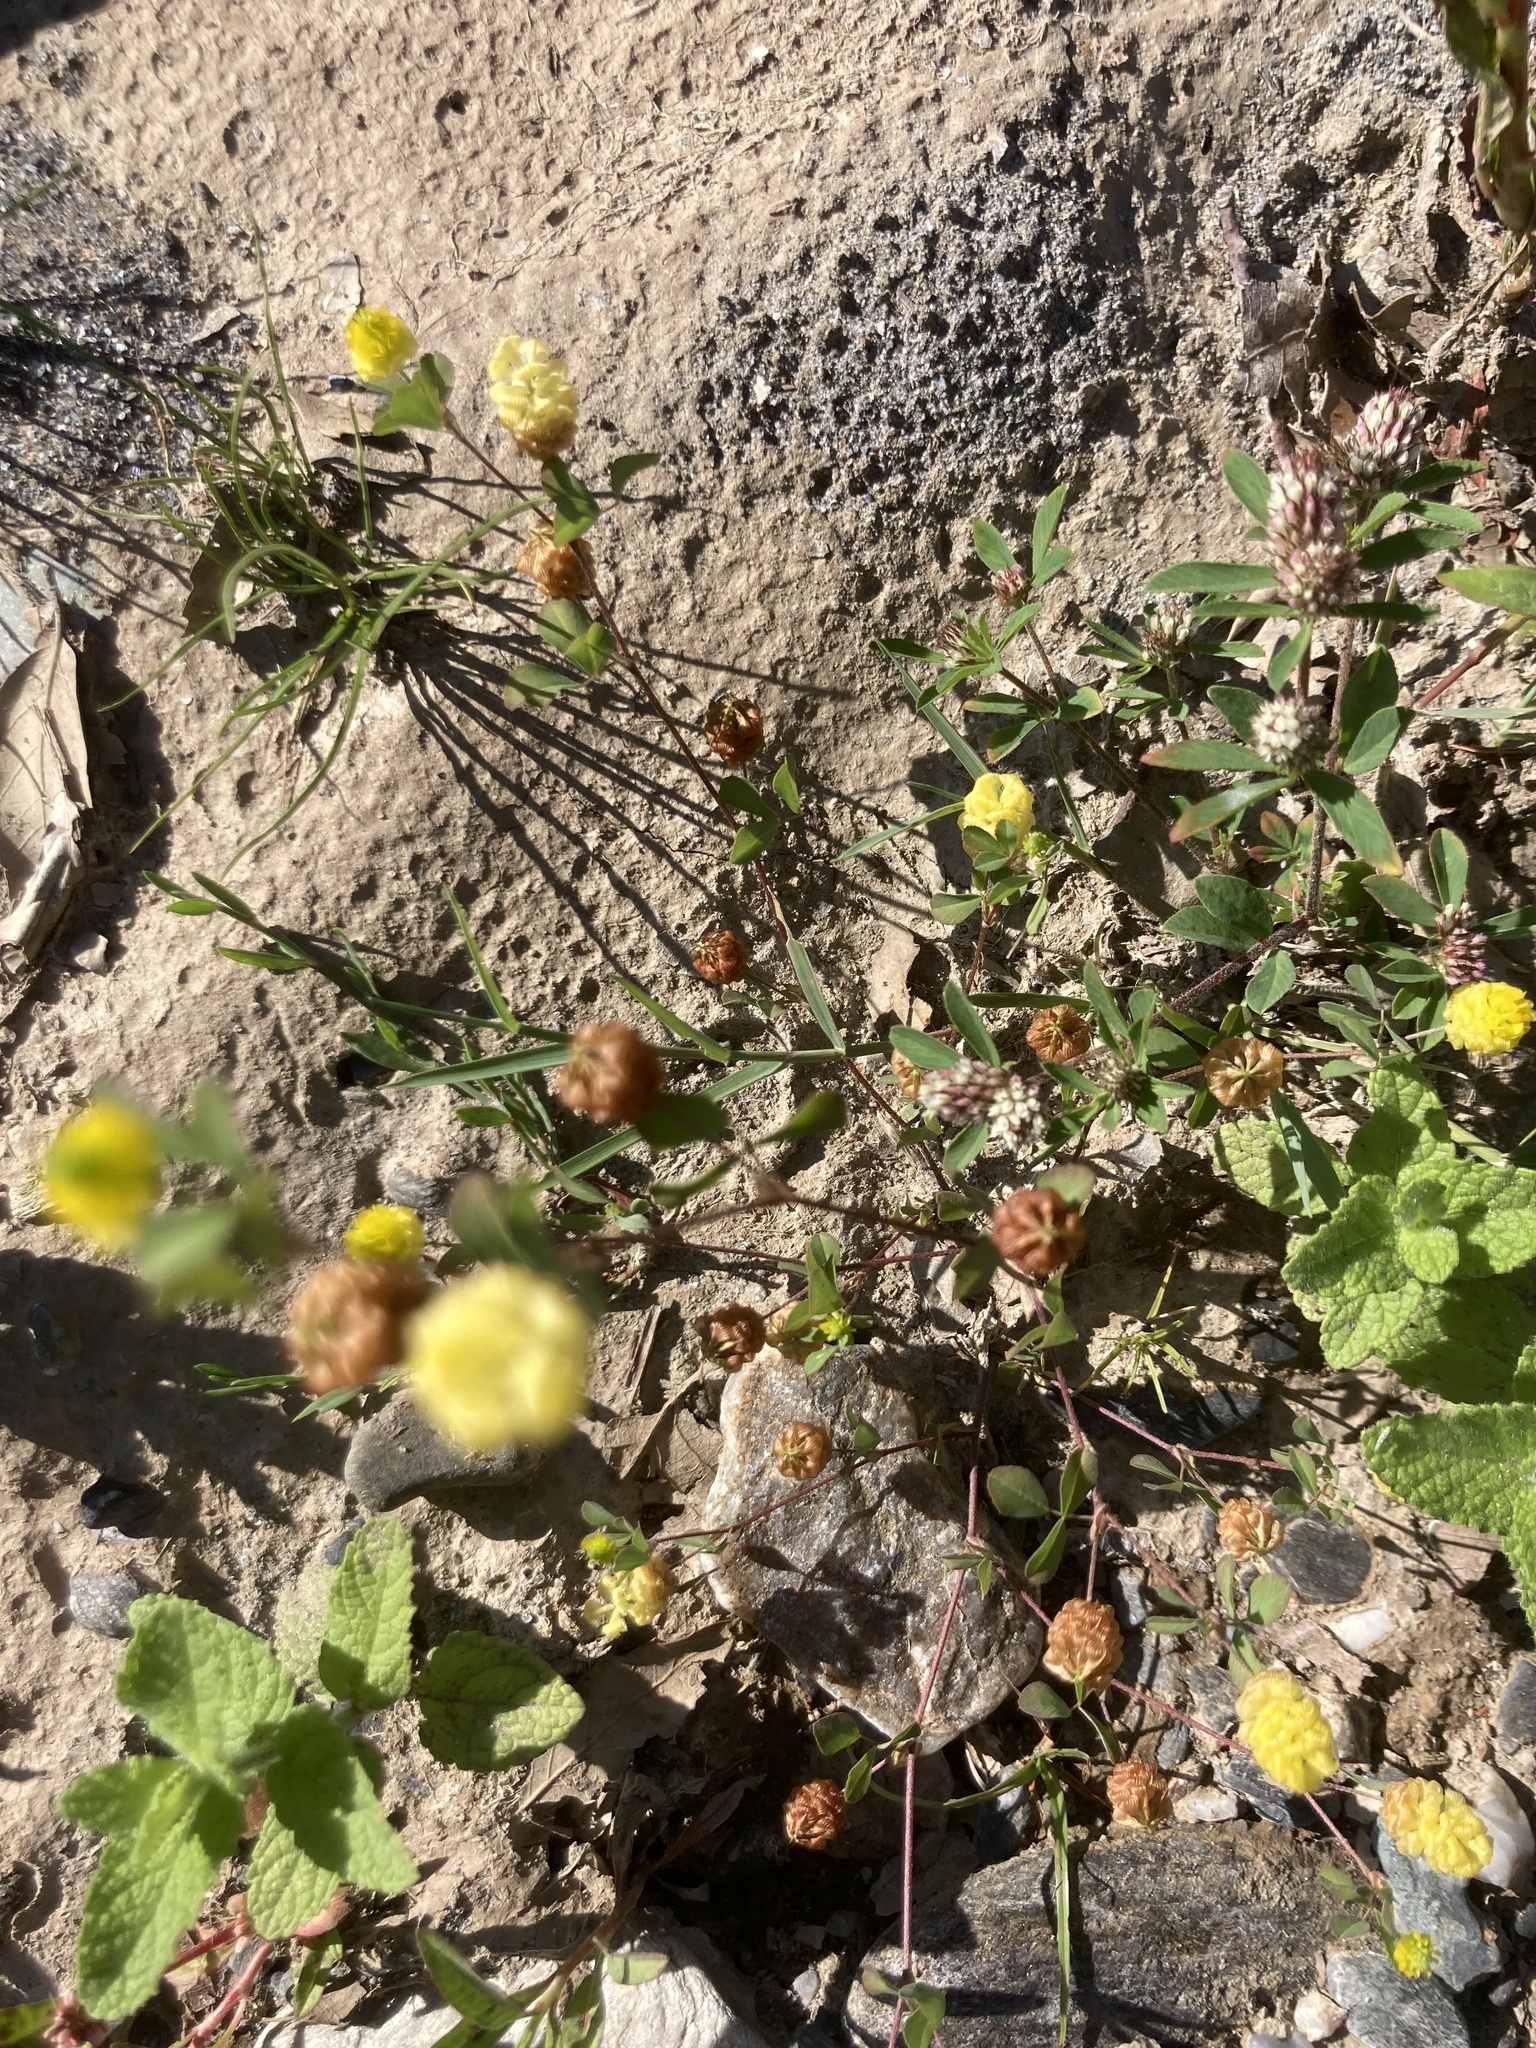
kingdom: Plantae
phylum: Tracheophyta
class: Magnoliopsida
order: Fabales
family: Fabaceae
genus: Trifolium
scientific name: Trifolium campestre
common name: Field clover
